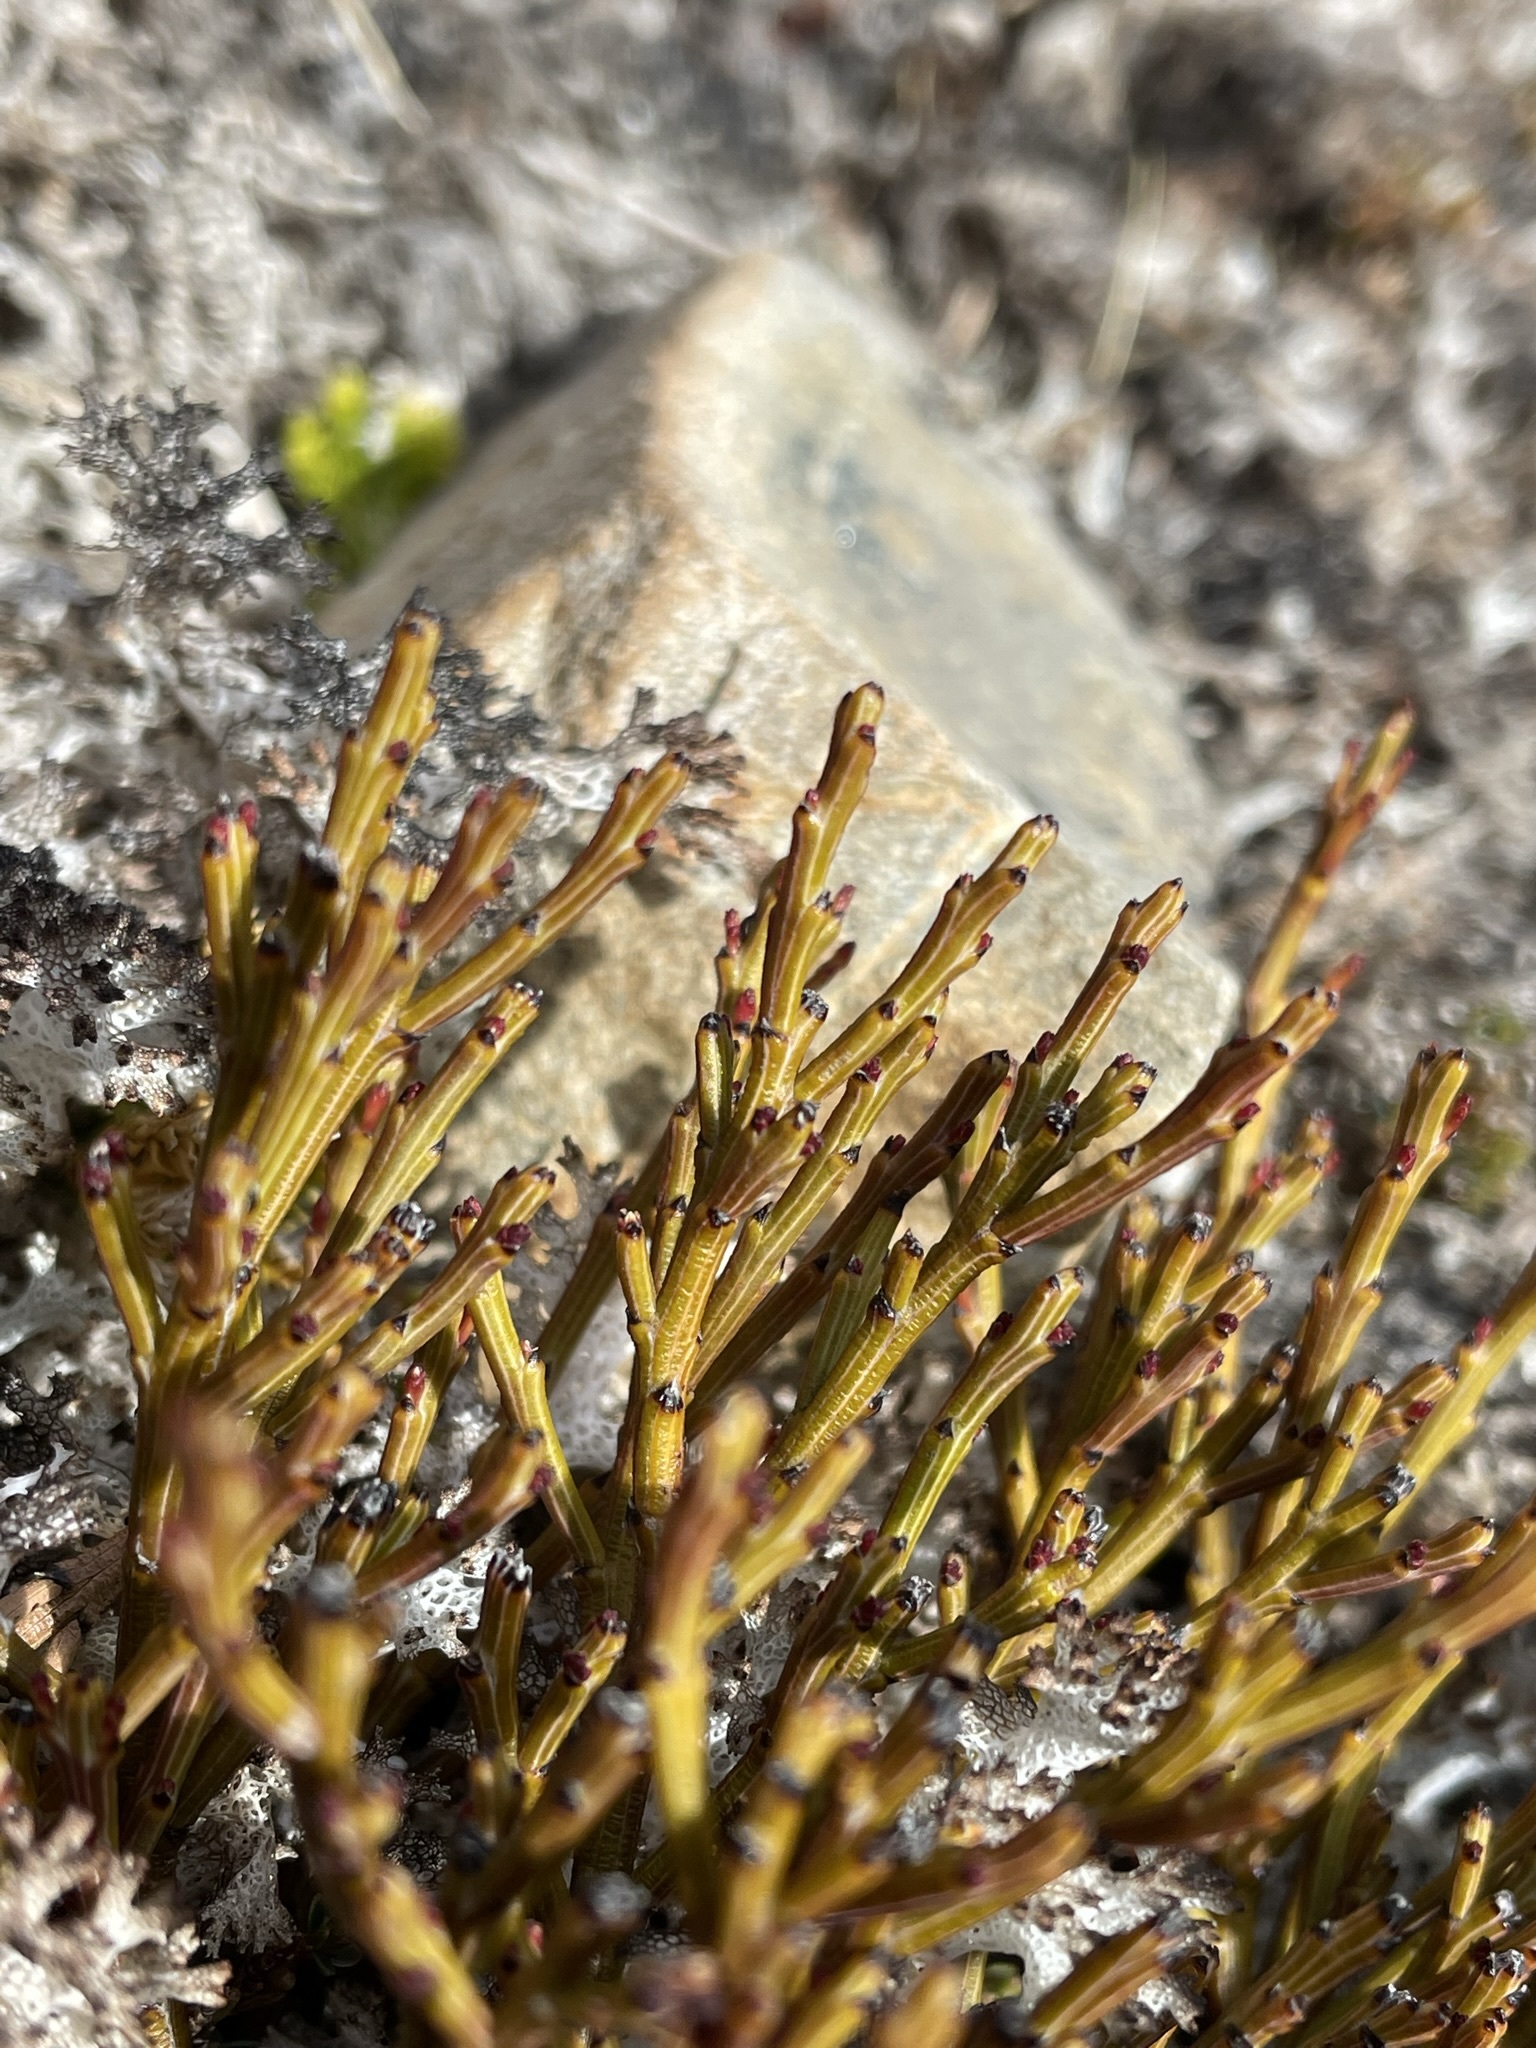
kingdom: Plantae
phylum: Tracheophyta
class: Magnoliopsida
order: Santalales
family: Santalaceae
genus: Exocarpos
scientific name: Exocarpos bidwillii
